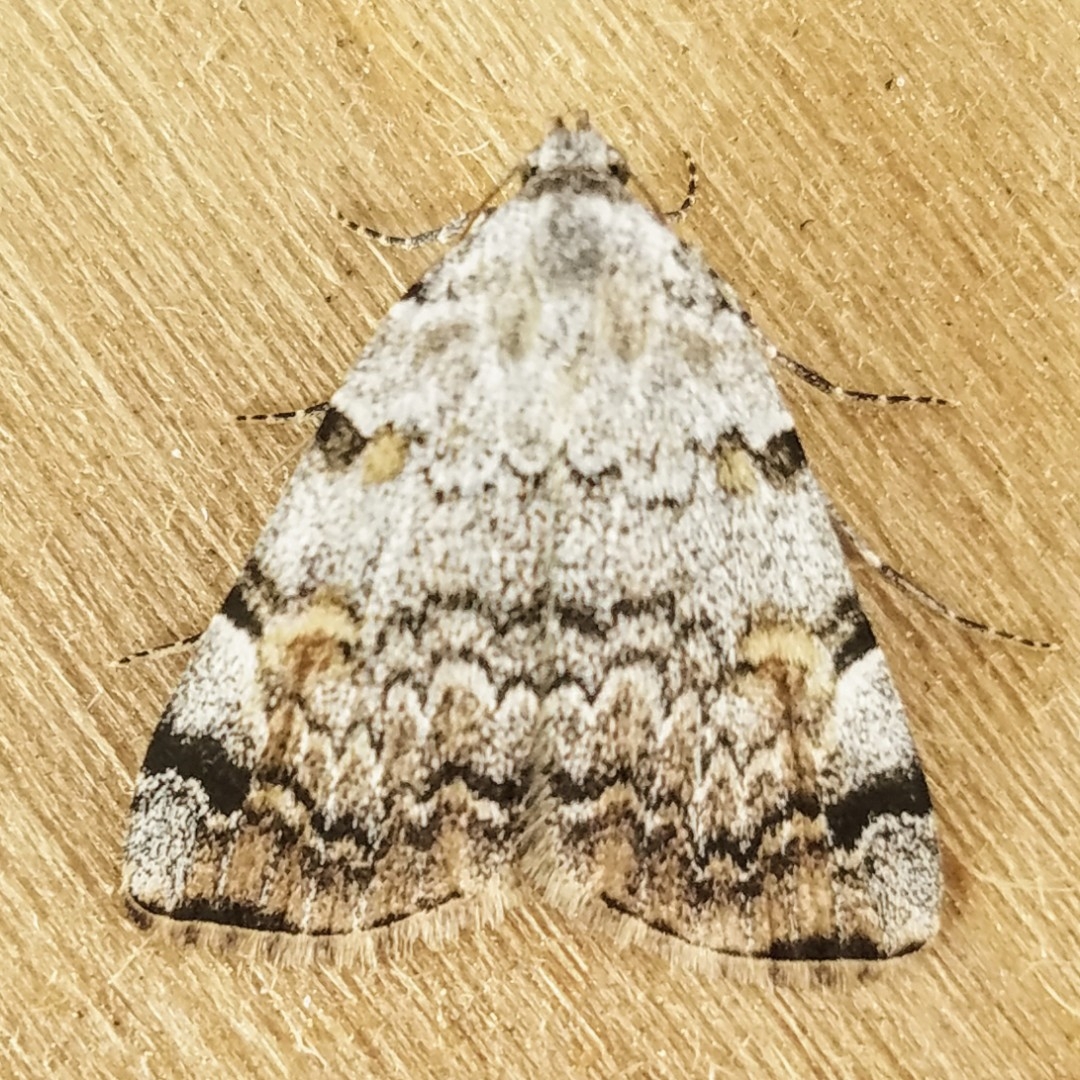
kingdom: Animalia
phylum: Arthropoda
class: Insecta
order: Lepidoptera
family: Erebidae
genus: Idia
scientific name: Idia americalis
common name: American idia moth
